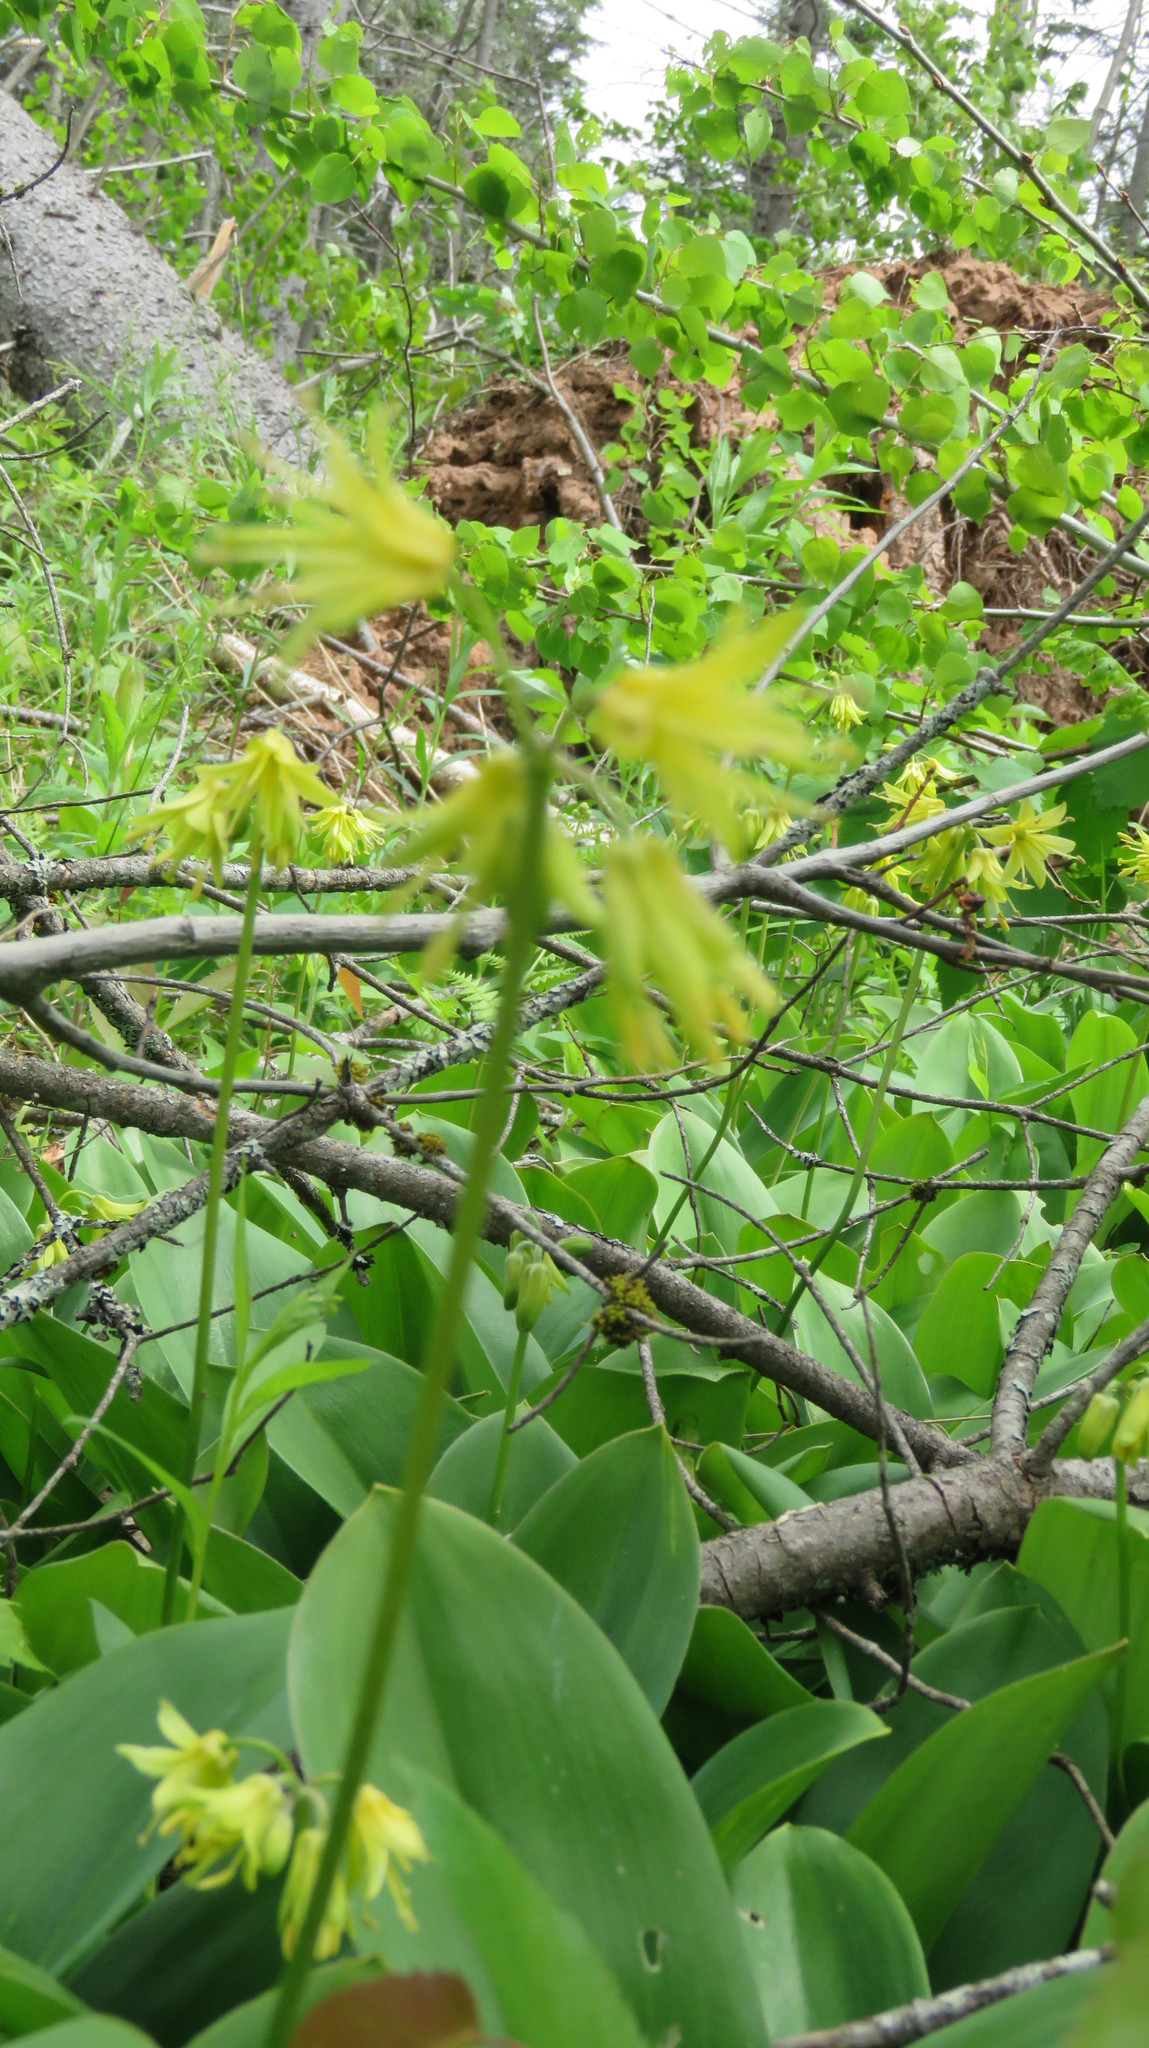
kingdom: Plantae
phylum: Tracheophyta
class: Liliopsida
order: Liliales
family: Liliaceae
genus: Clintonia
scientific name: Clintonia borealis
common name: Yellow clintonia
